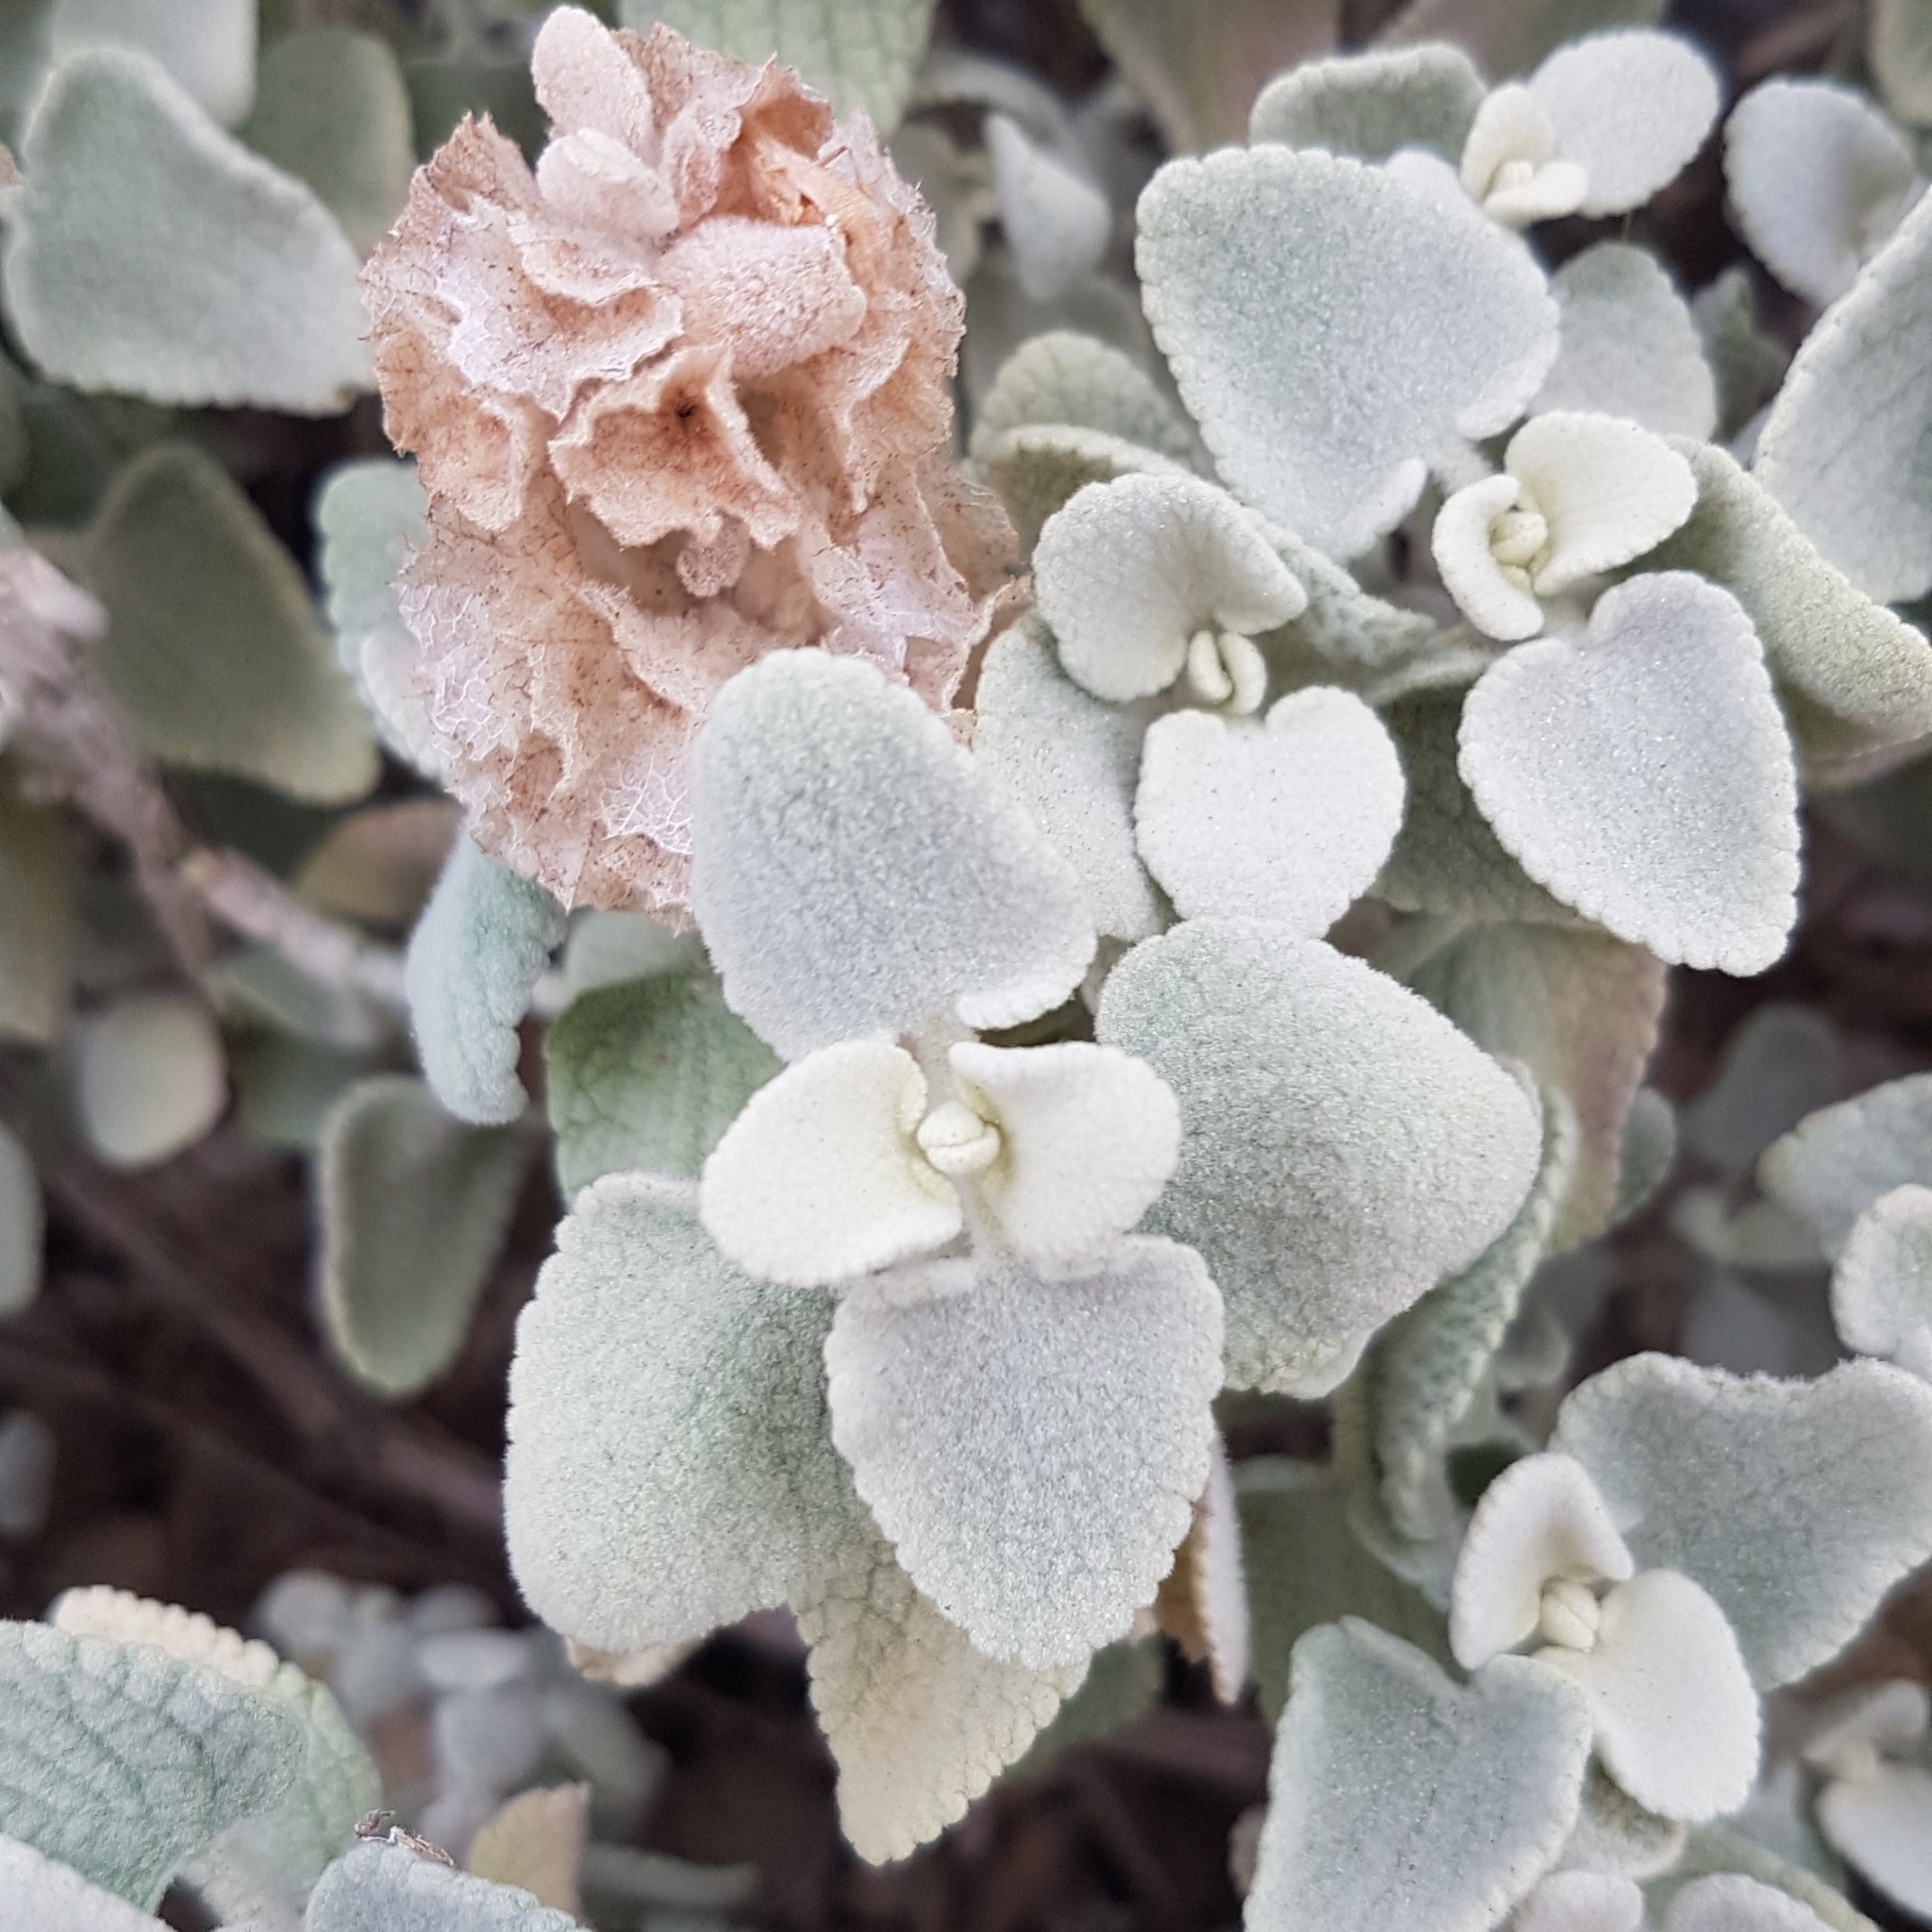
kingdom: Plantae
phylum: Tracheophyta
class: Magnoliopsida
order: Lamiales
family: Lamiaceae
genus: Pseudodictamnus
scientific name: Pseudodictamnus acetabulosus
